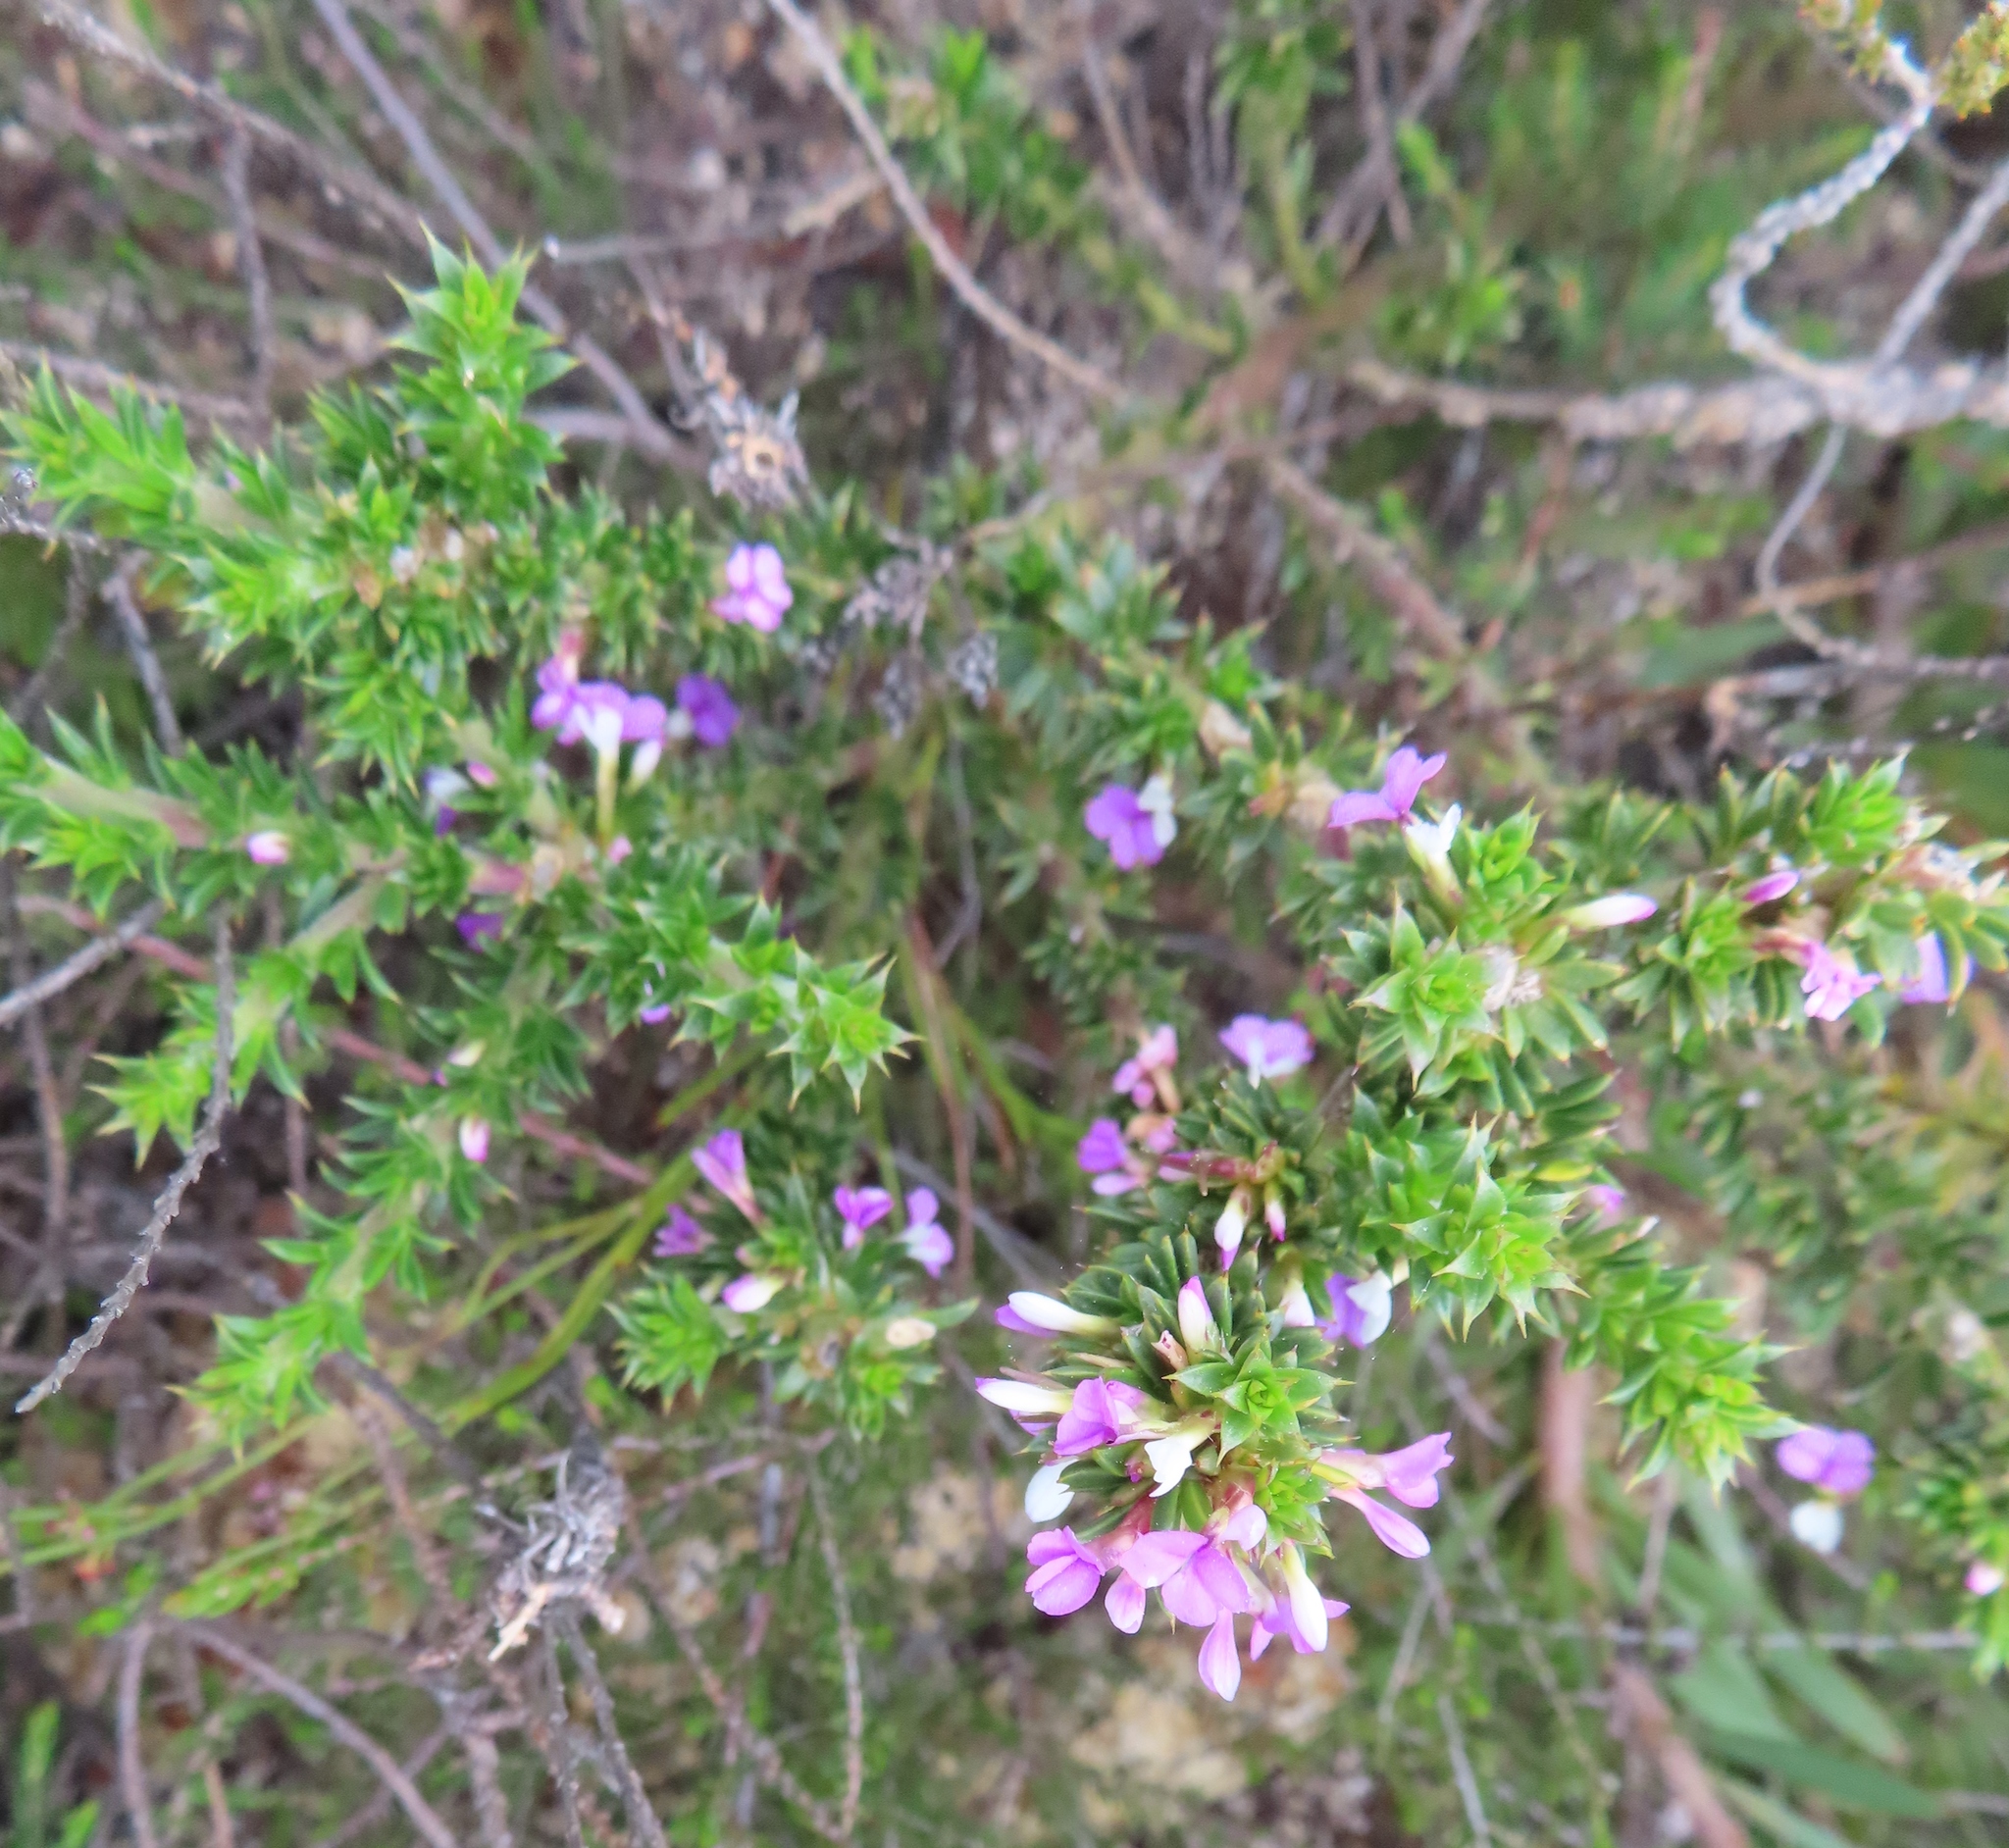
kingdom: Plantae
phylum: Tracheophyta
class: Magnoliopsida
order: Fabales
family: Polygalaceae
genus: Muraltia
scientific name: Muraltia heisteria
